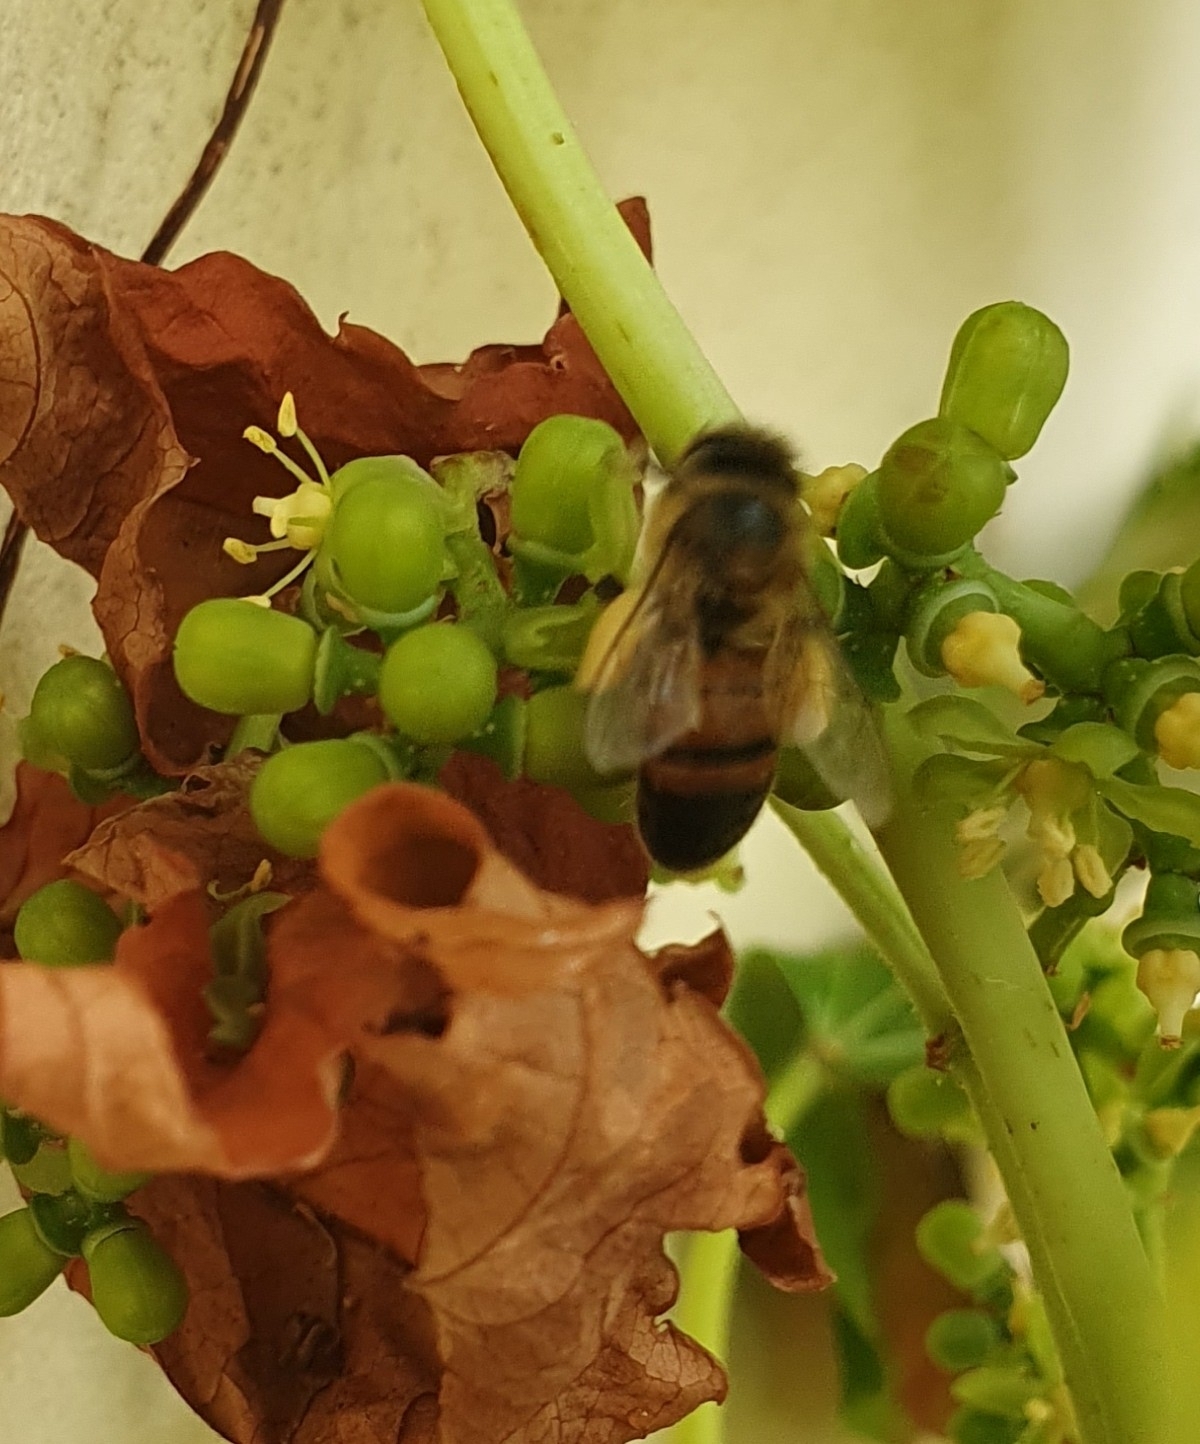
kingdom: Animalia
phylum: Arthropoda
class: Insecta
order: Hymenoptera
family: Apidae
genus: Apis
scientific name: Apis mellifera
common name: Honey bee
